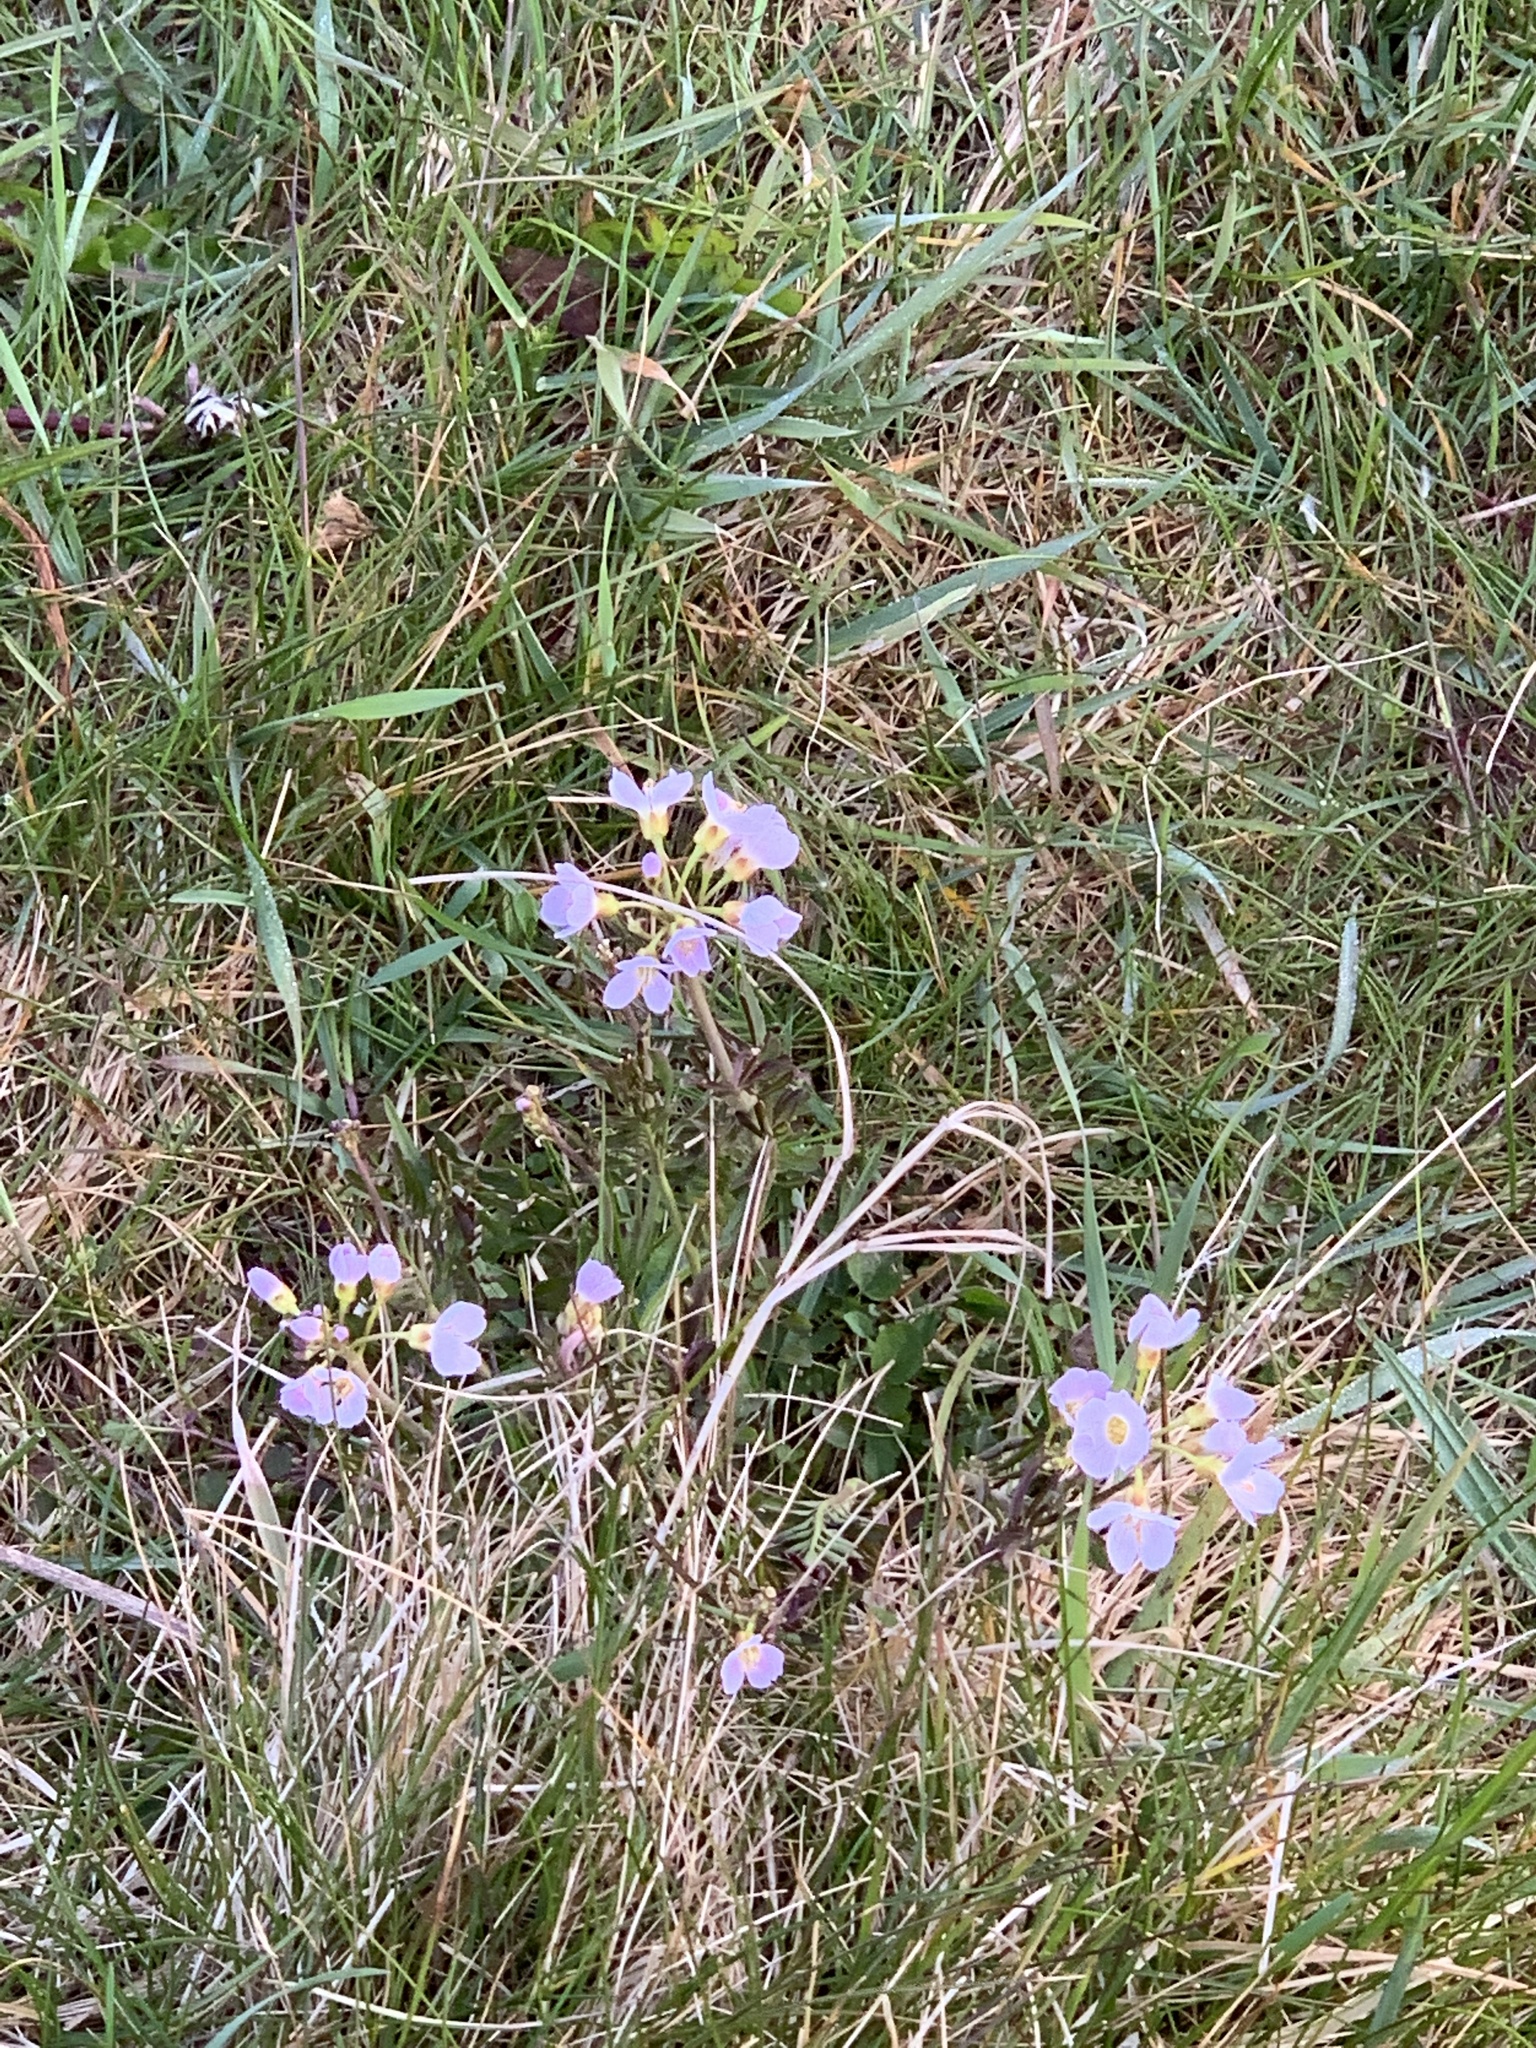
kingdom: Plantae
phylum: Tracheophyta
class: Magnoliopsida
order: Brassicales
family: Brassicaceae
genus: Cardamine
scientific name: Cardamine pratensis
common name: Cuckoo flower
